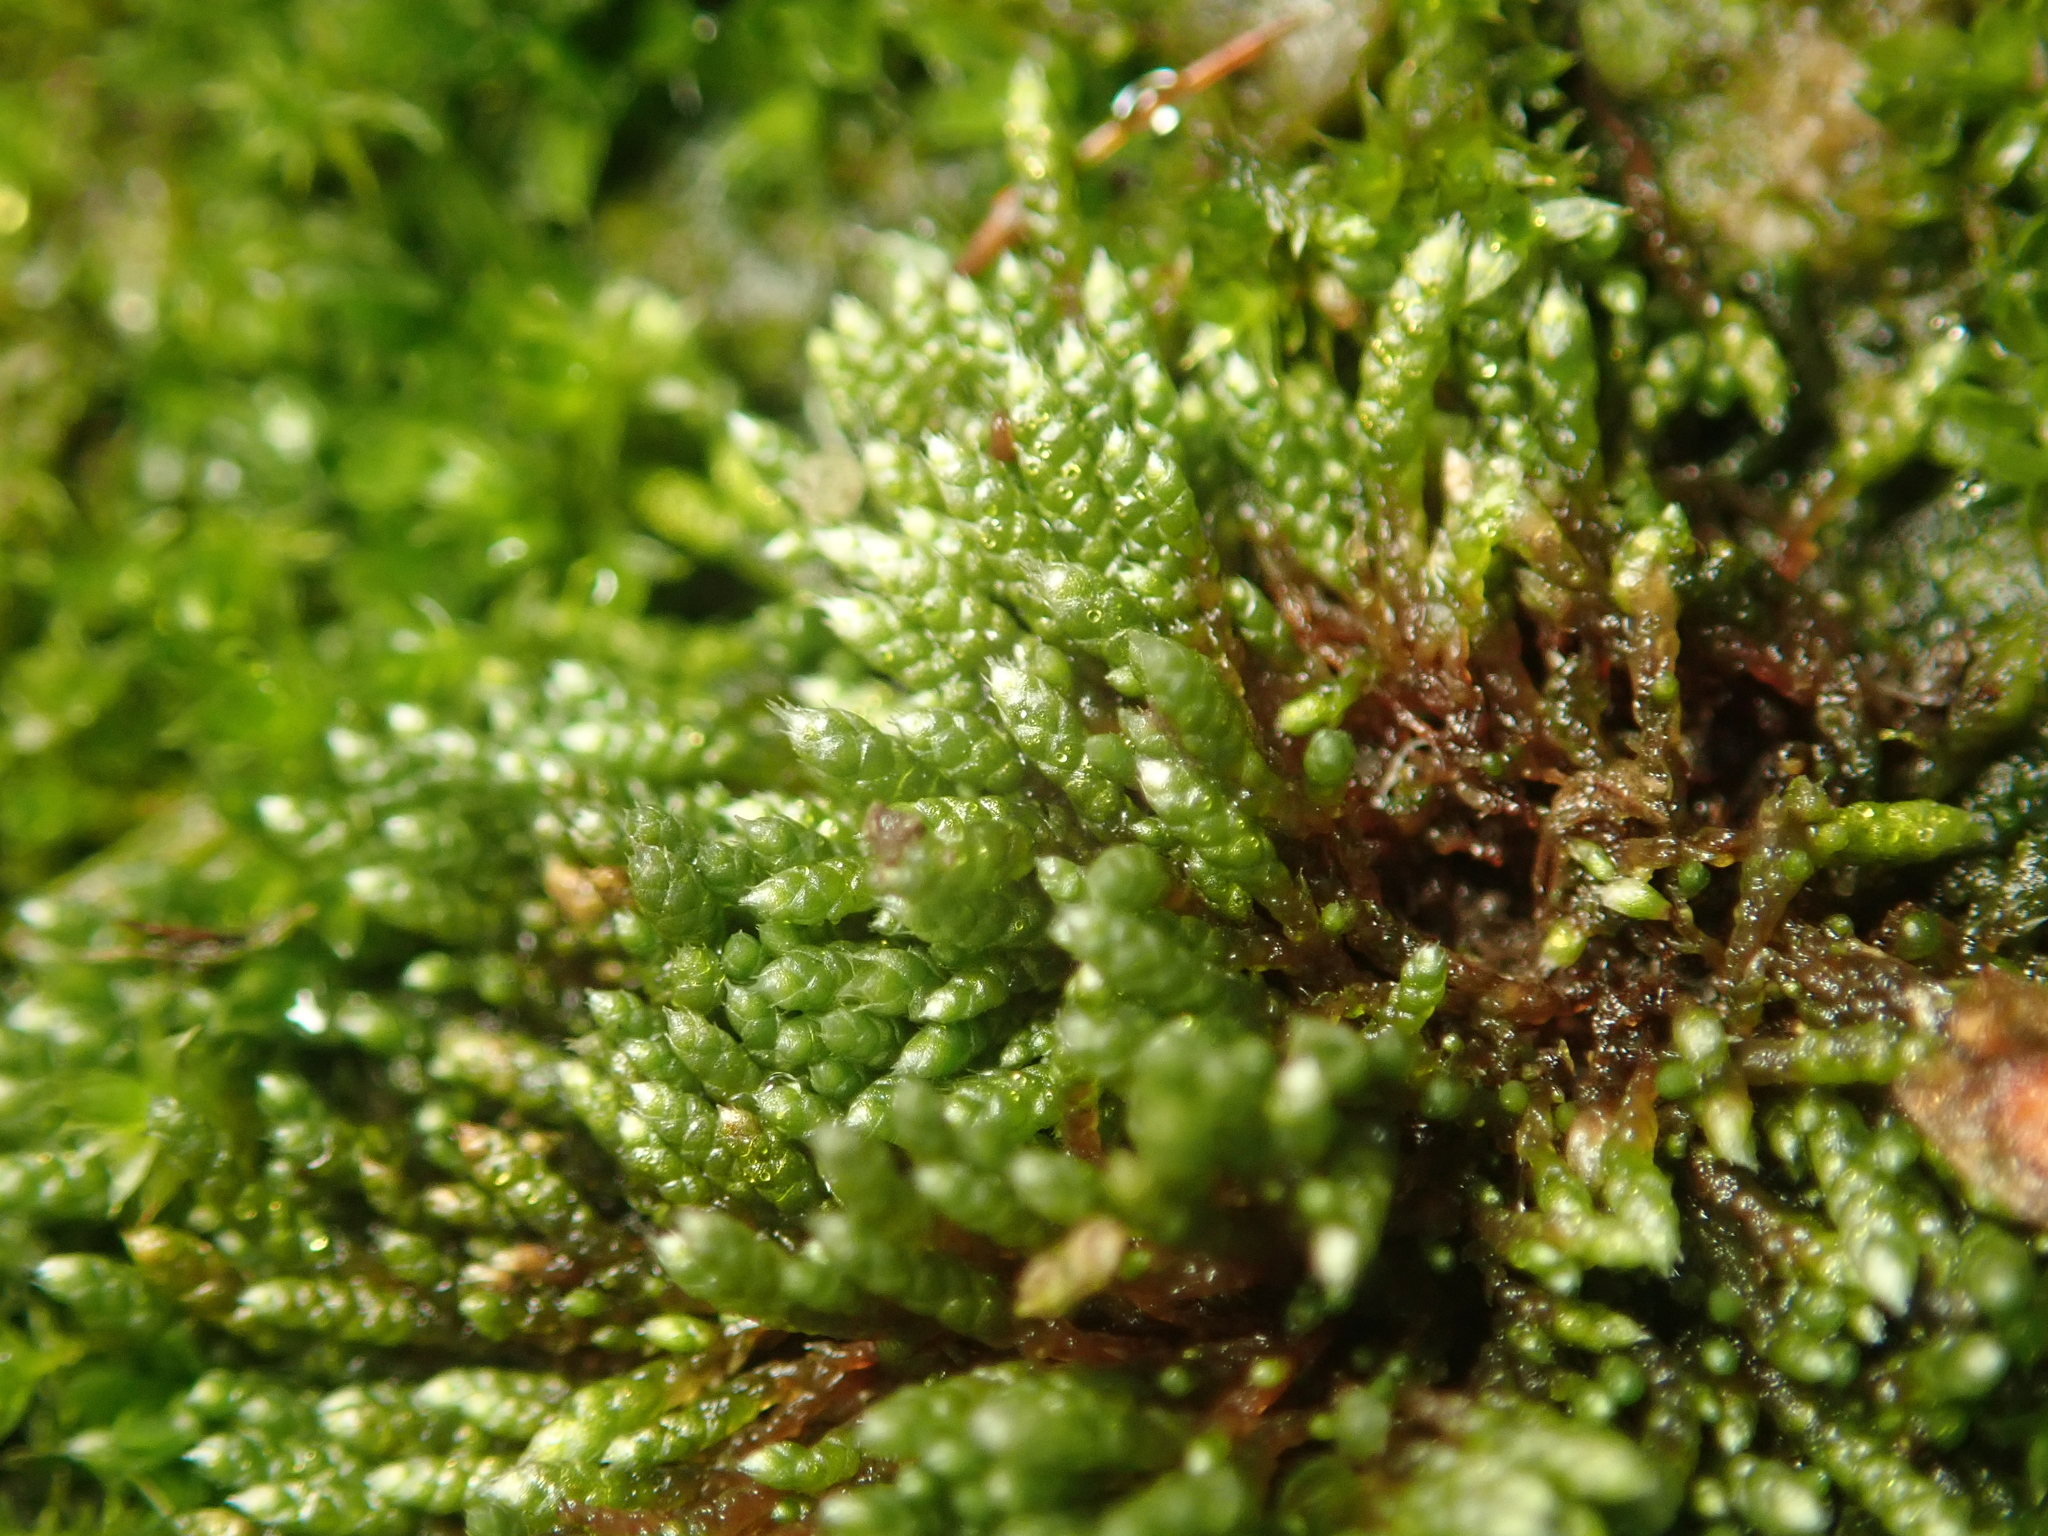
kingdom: Plantae
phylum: Bryophyta
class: Bryopsida
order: Bryales
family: Bryaceae
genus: Bryum
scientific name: Bryum argenteum
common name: Silver-moss
